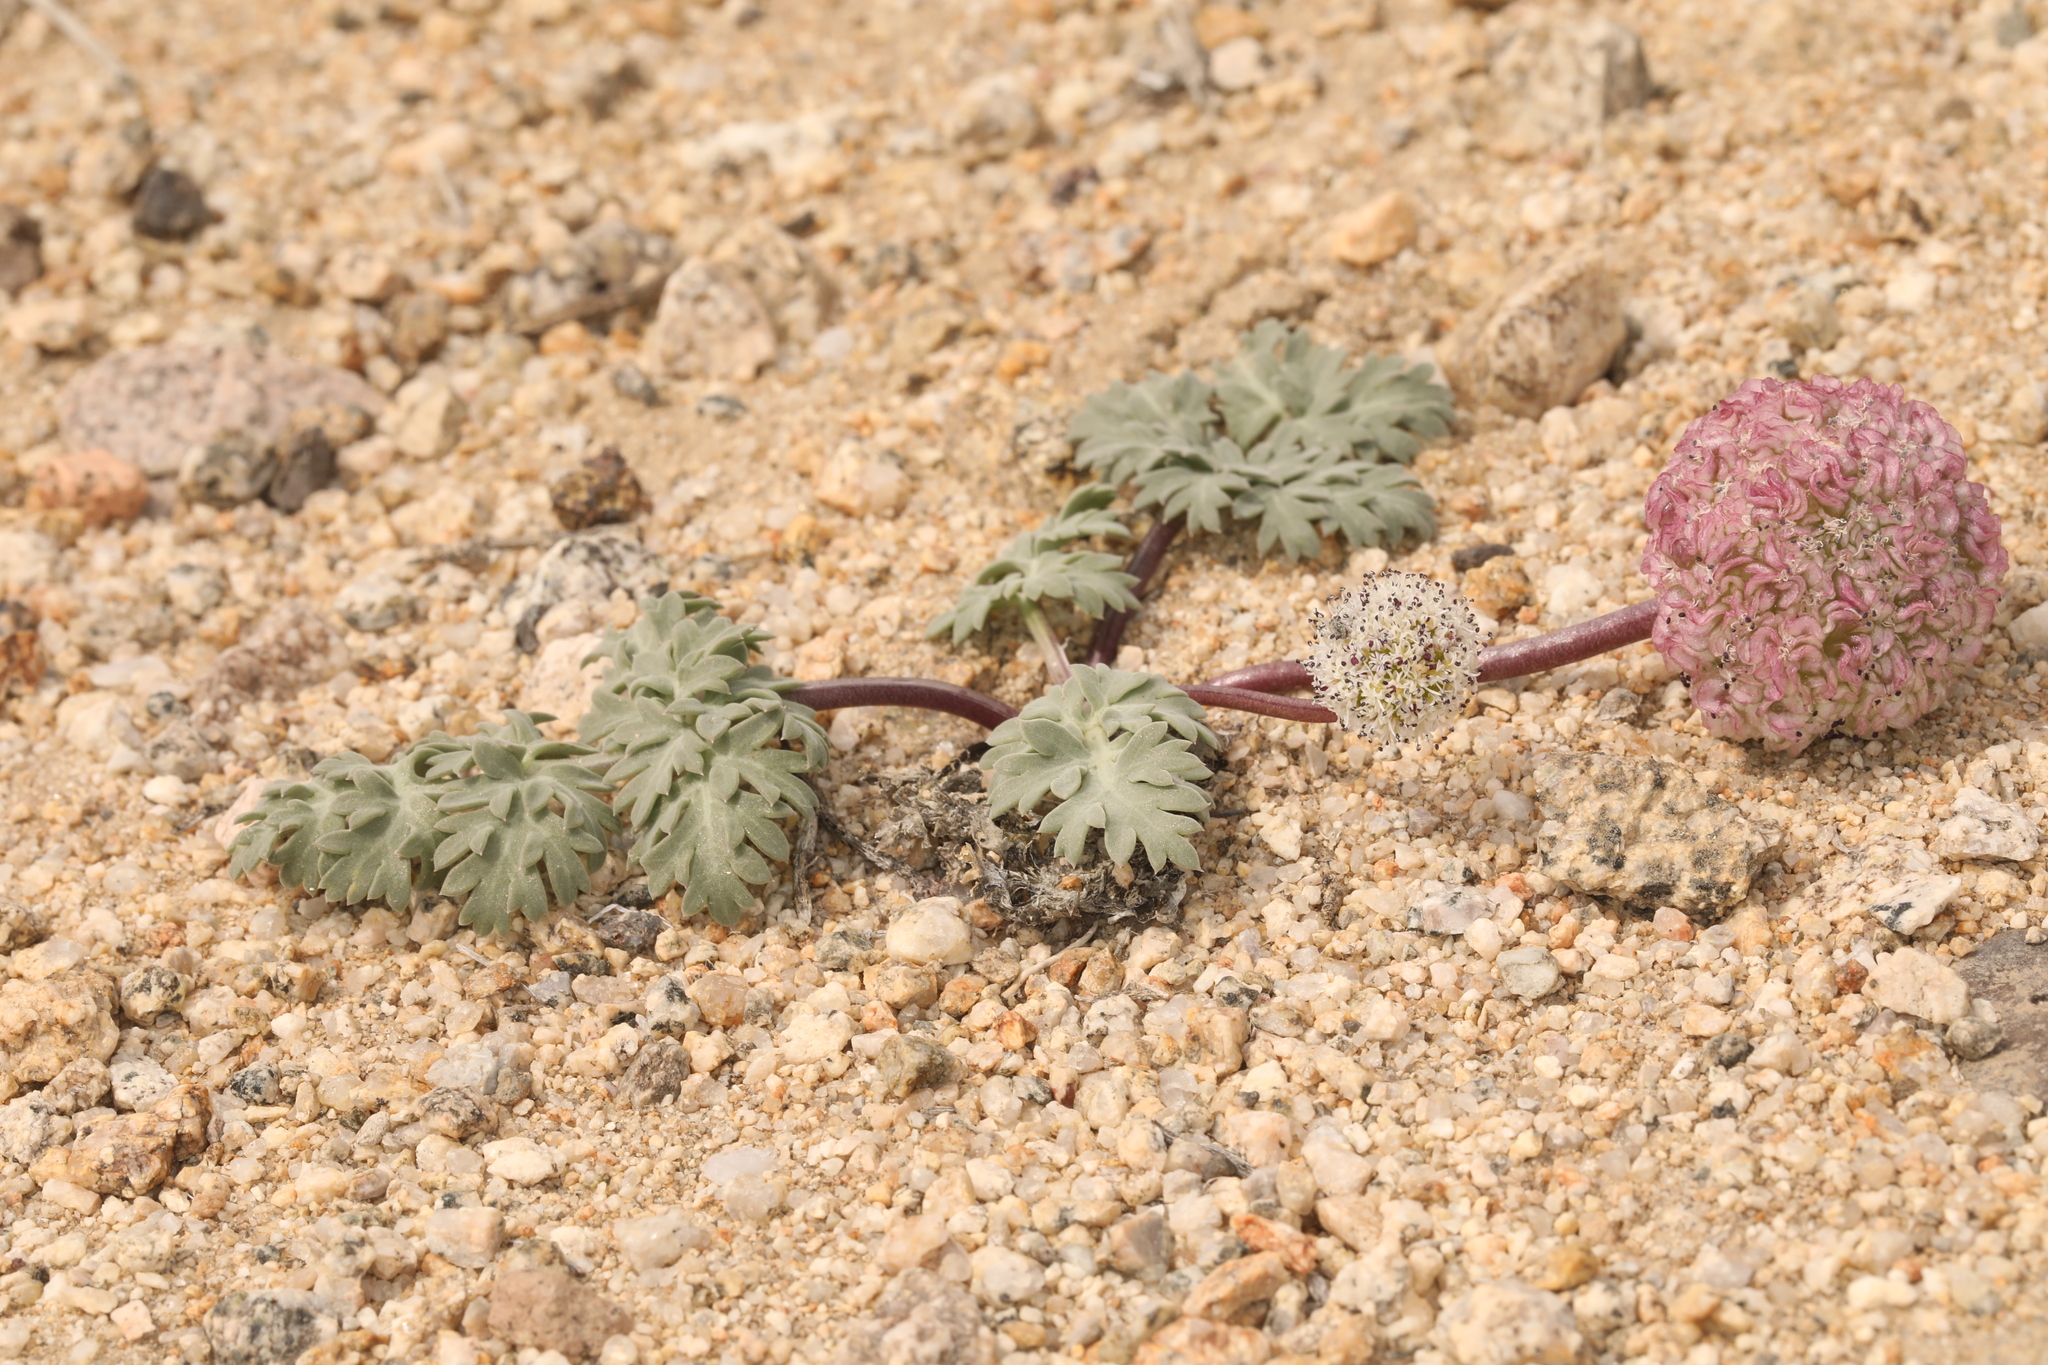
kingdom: Plantae
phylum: Tracheophyta
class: Magnoliopsida
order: Apiales
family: Apiaceae
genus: Cymopterus
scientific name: Cymopterus globosus
